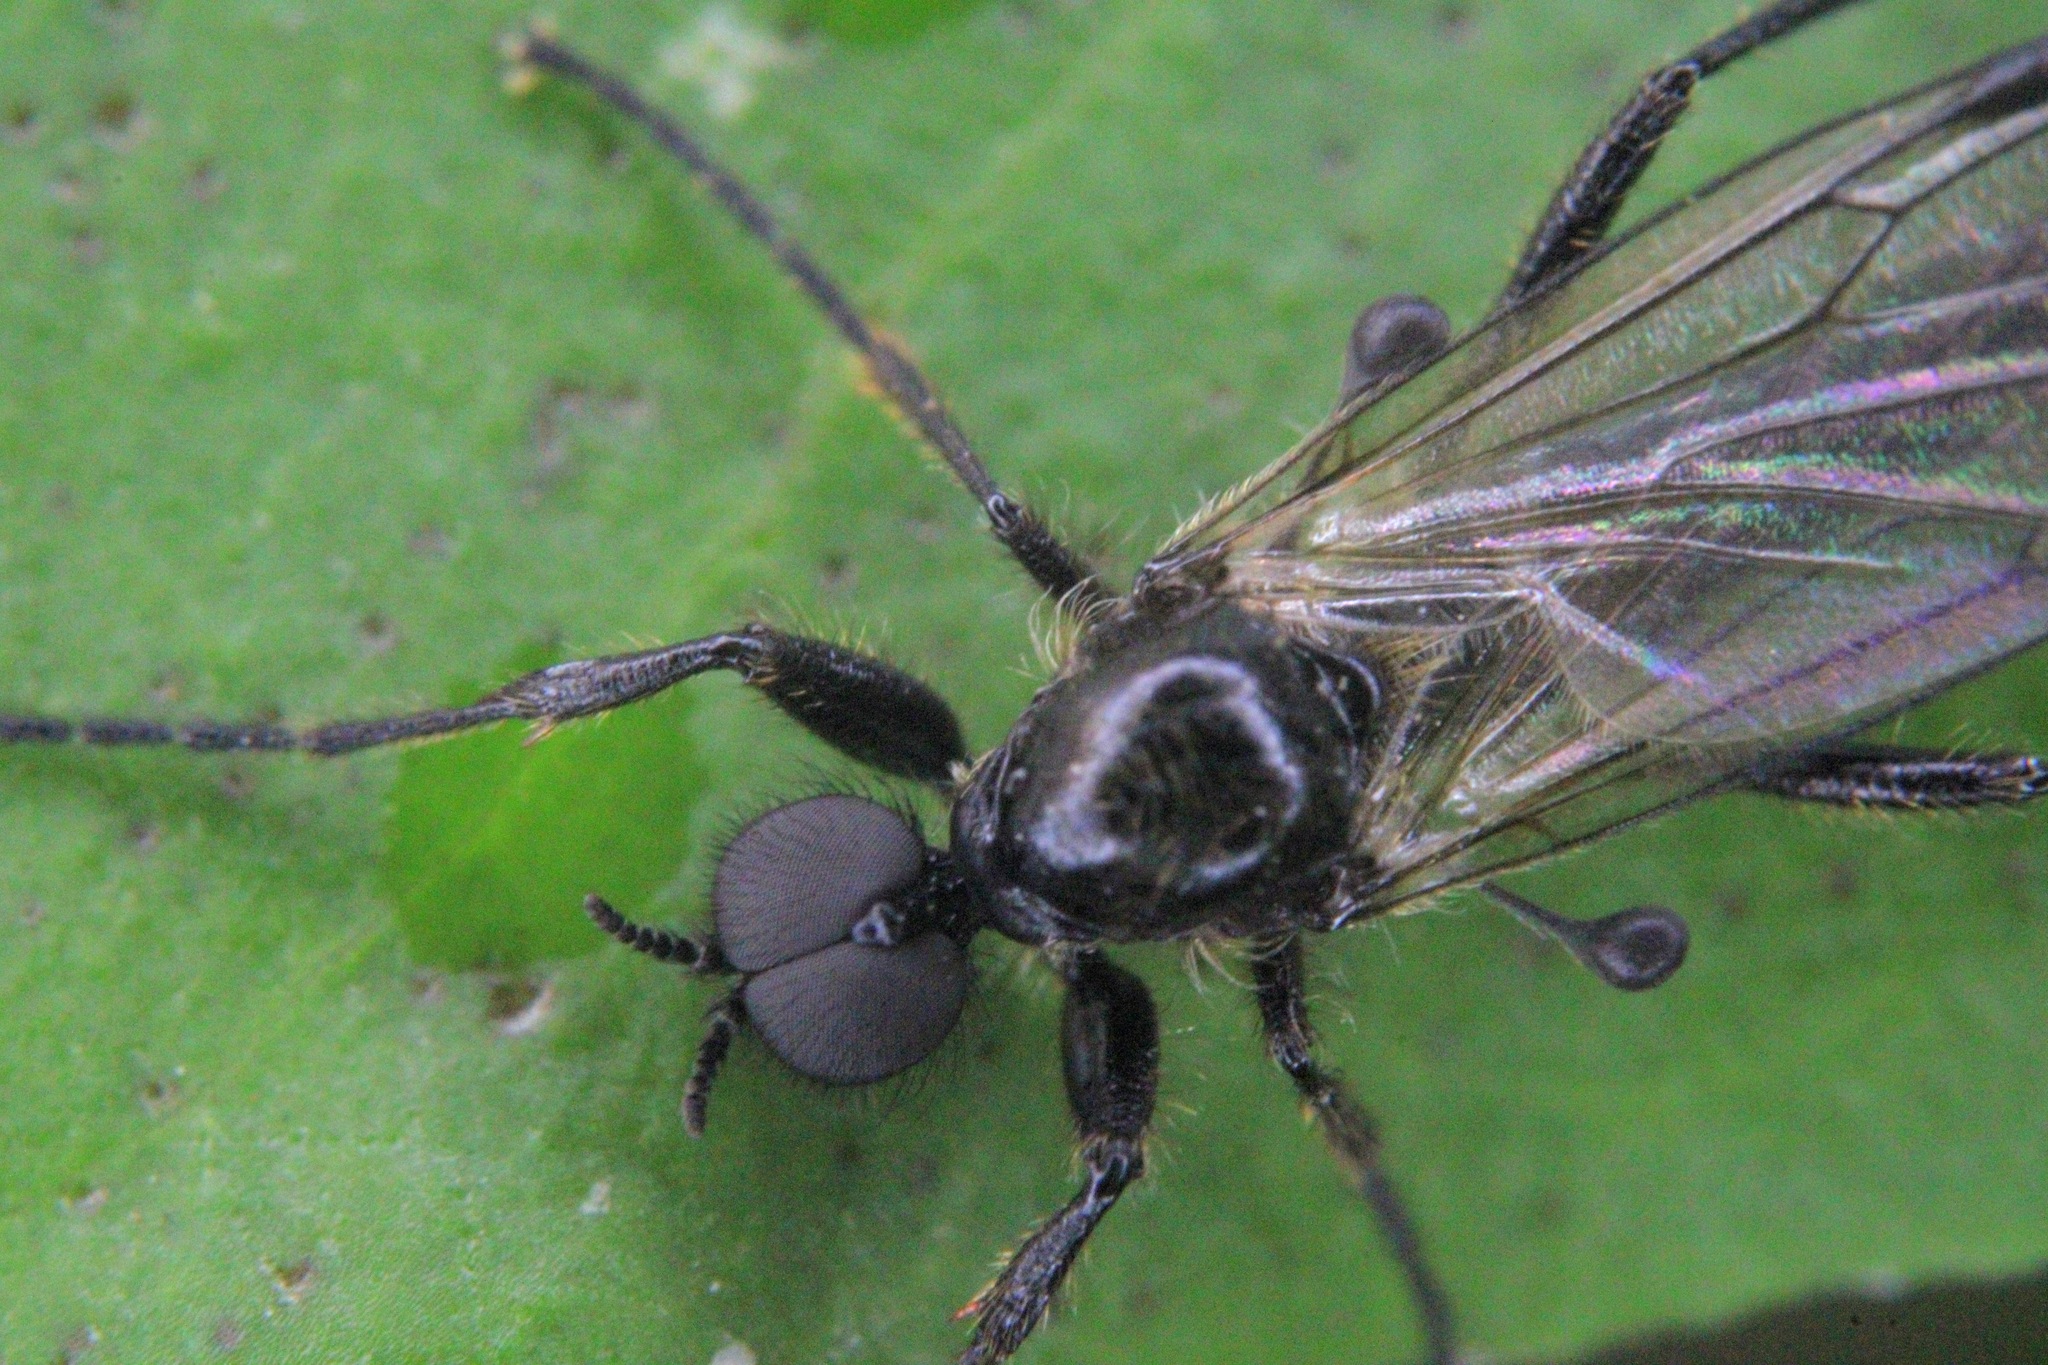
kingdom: Animalia
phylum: Arthropoda
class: Insecta
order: Diptera
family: Bibionidae
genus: Bibio
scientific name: Bibio longipes
